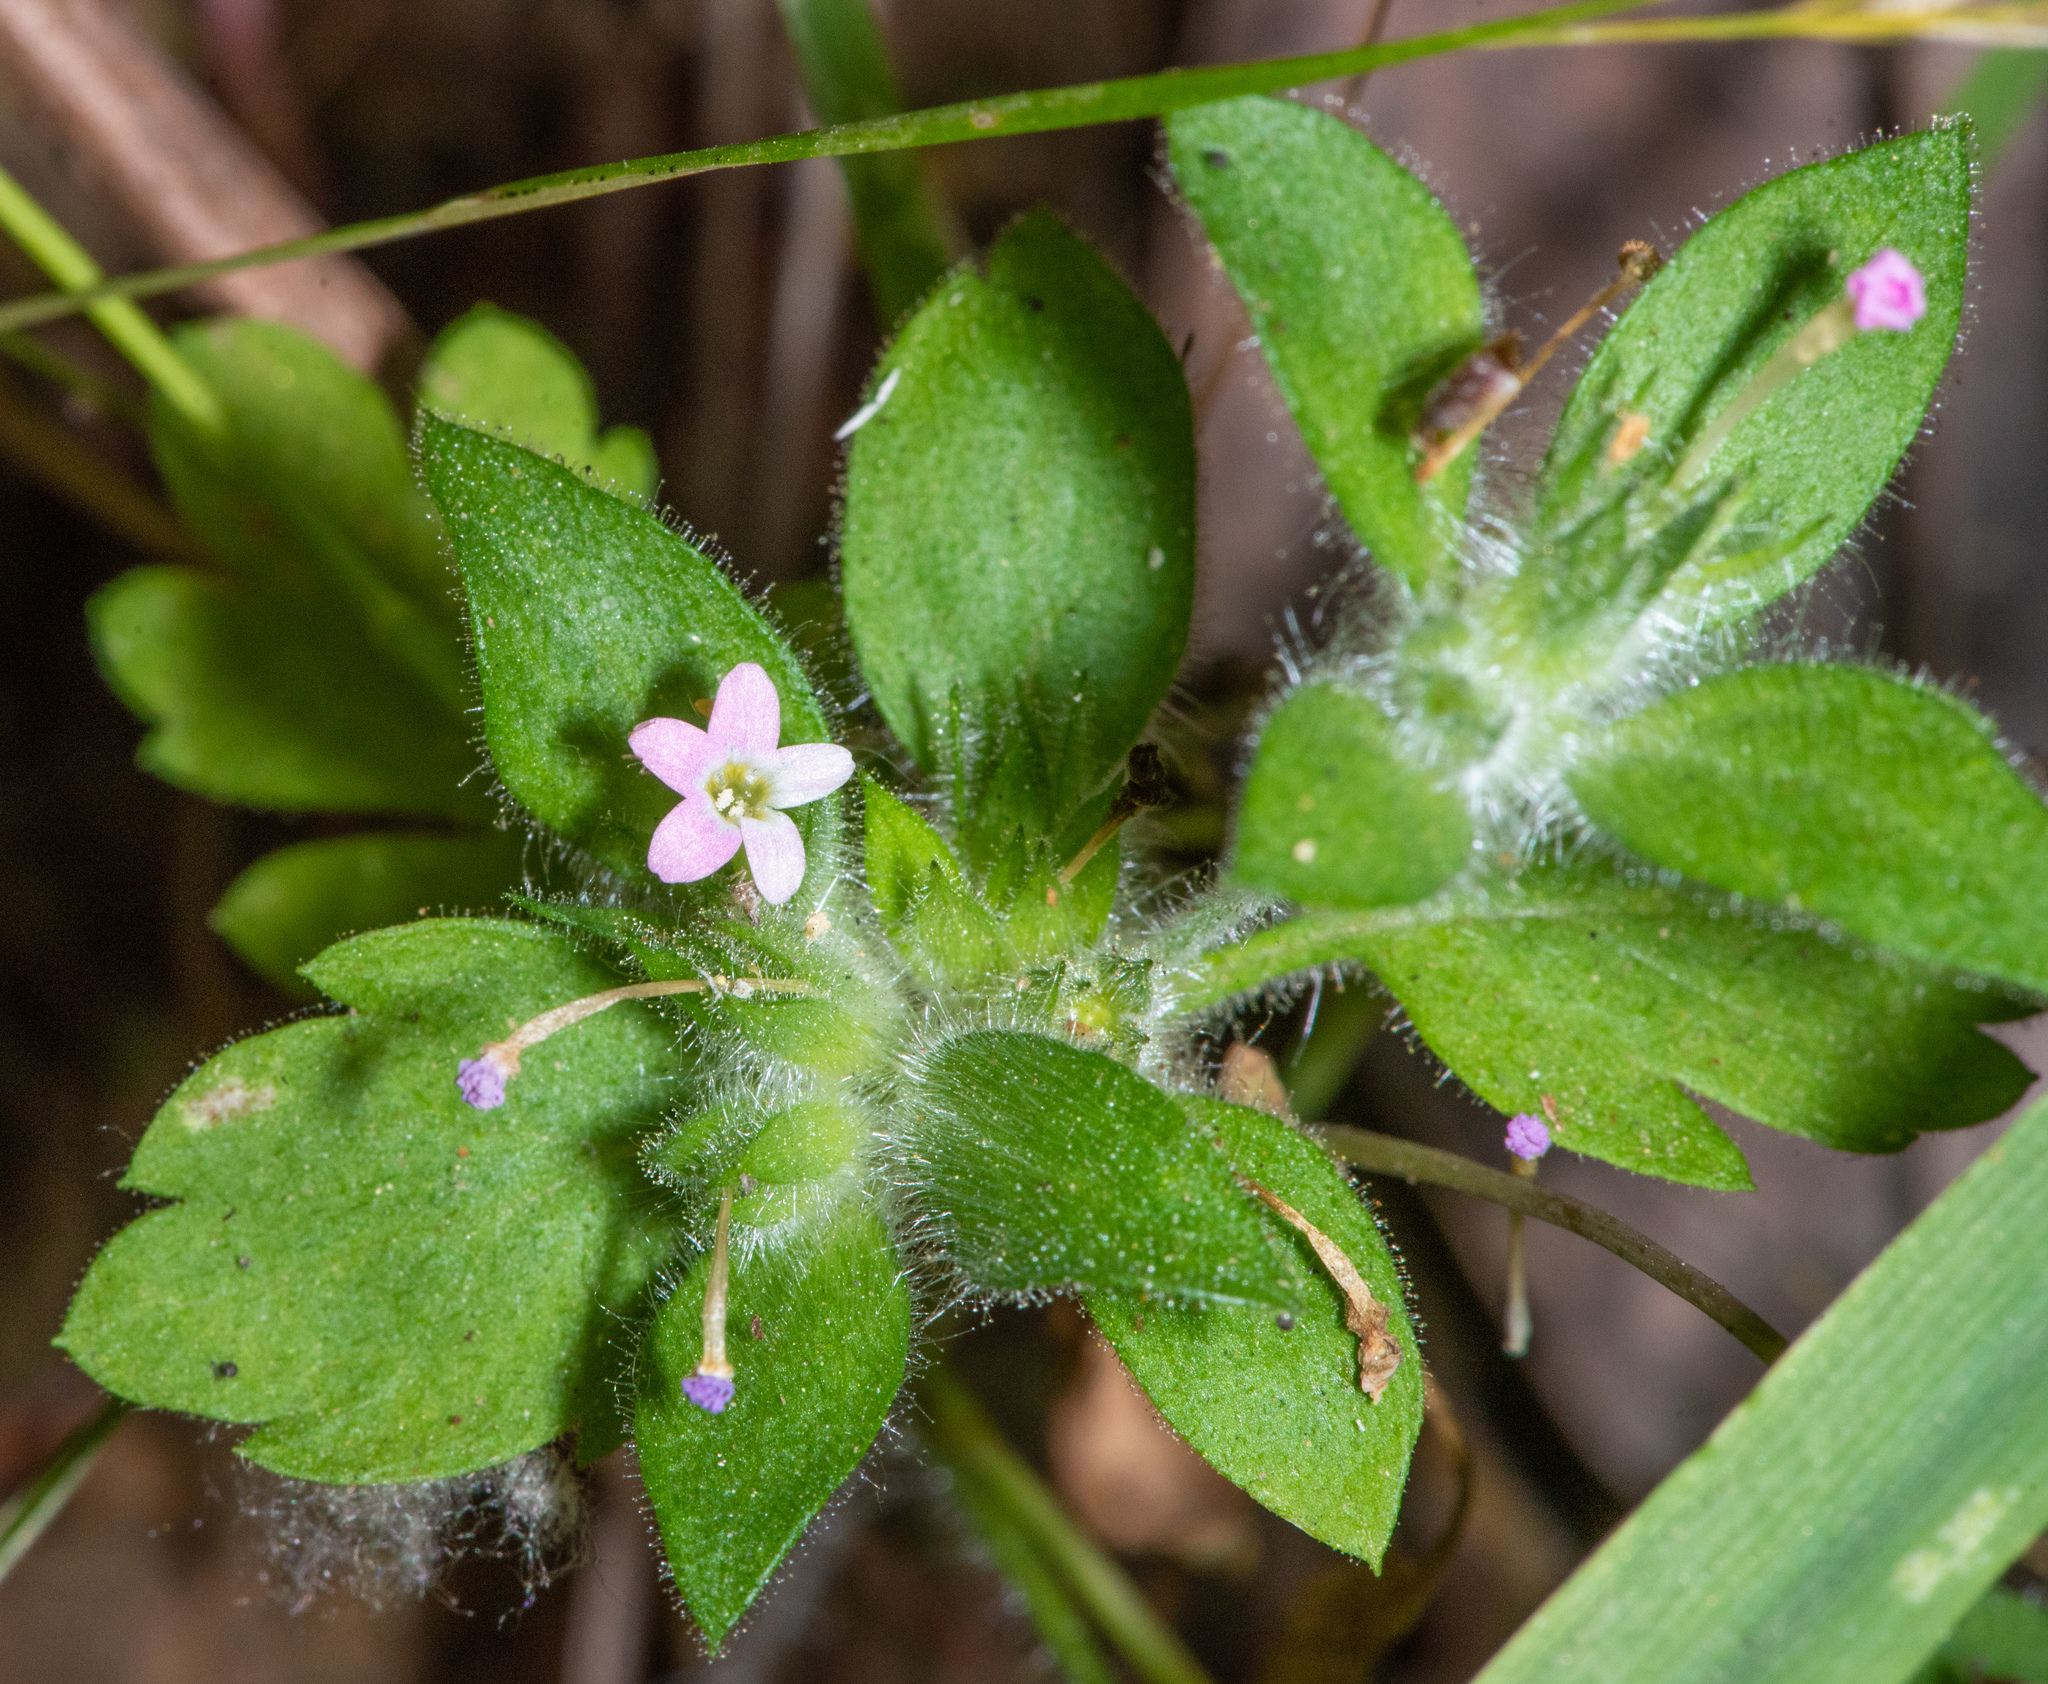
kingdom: Plantae
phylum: Tracheophyta
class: Magnoliopsida
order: Ericales
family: Polemoniaceae
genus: Collomia
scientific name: Collomia heterophylla
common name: Variable-leaved collomia
